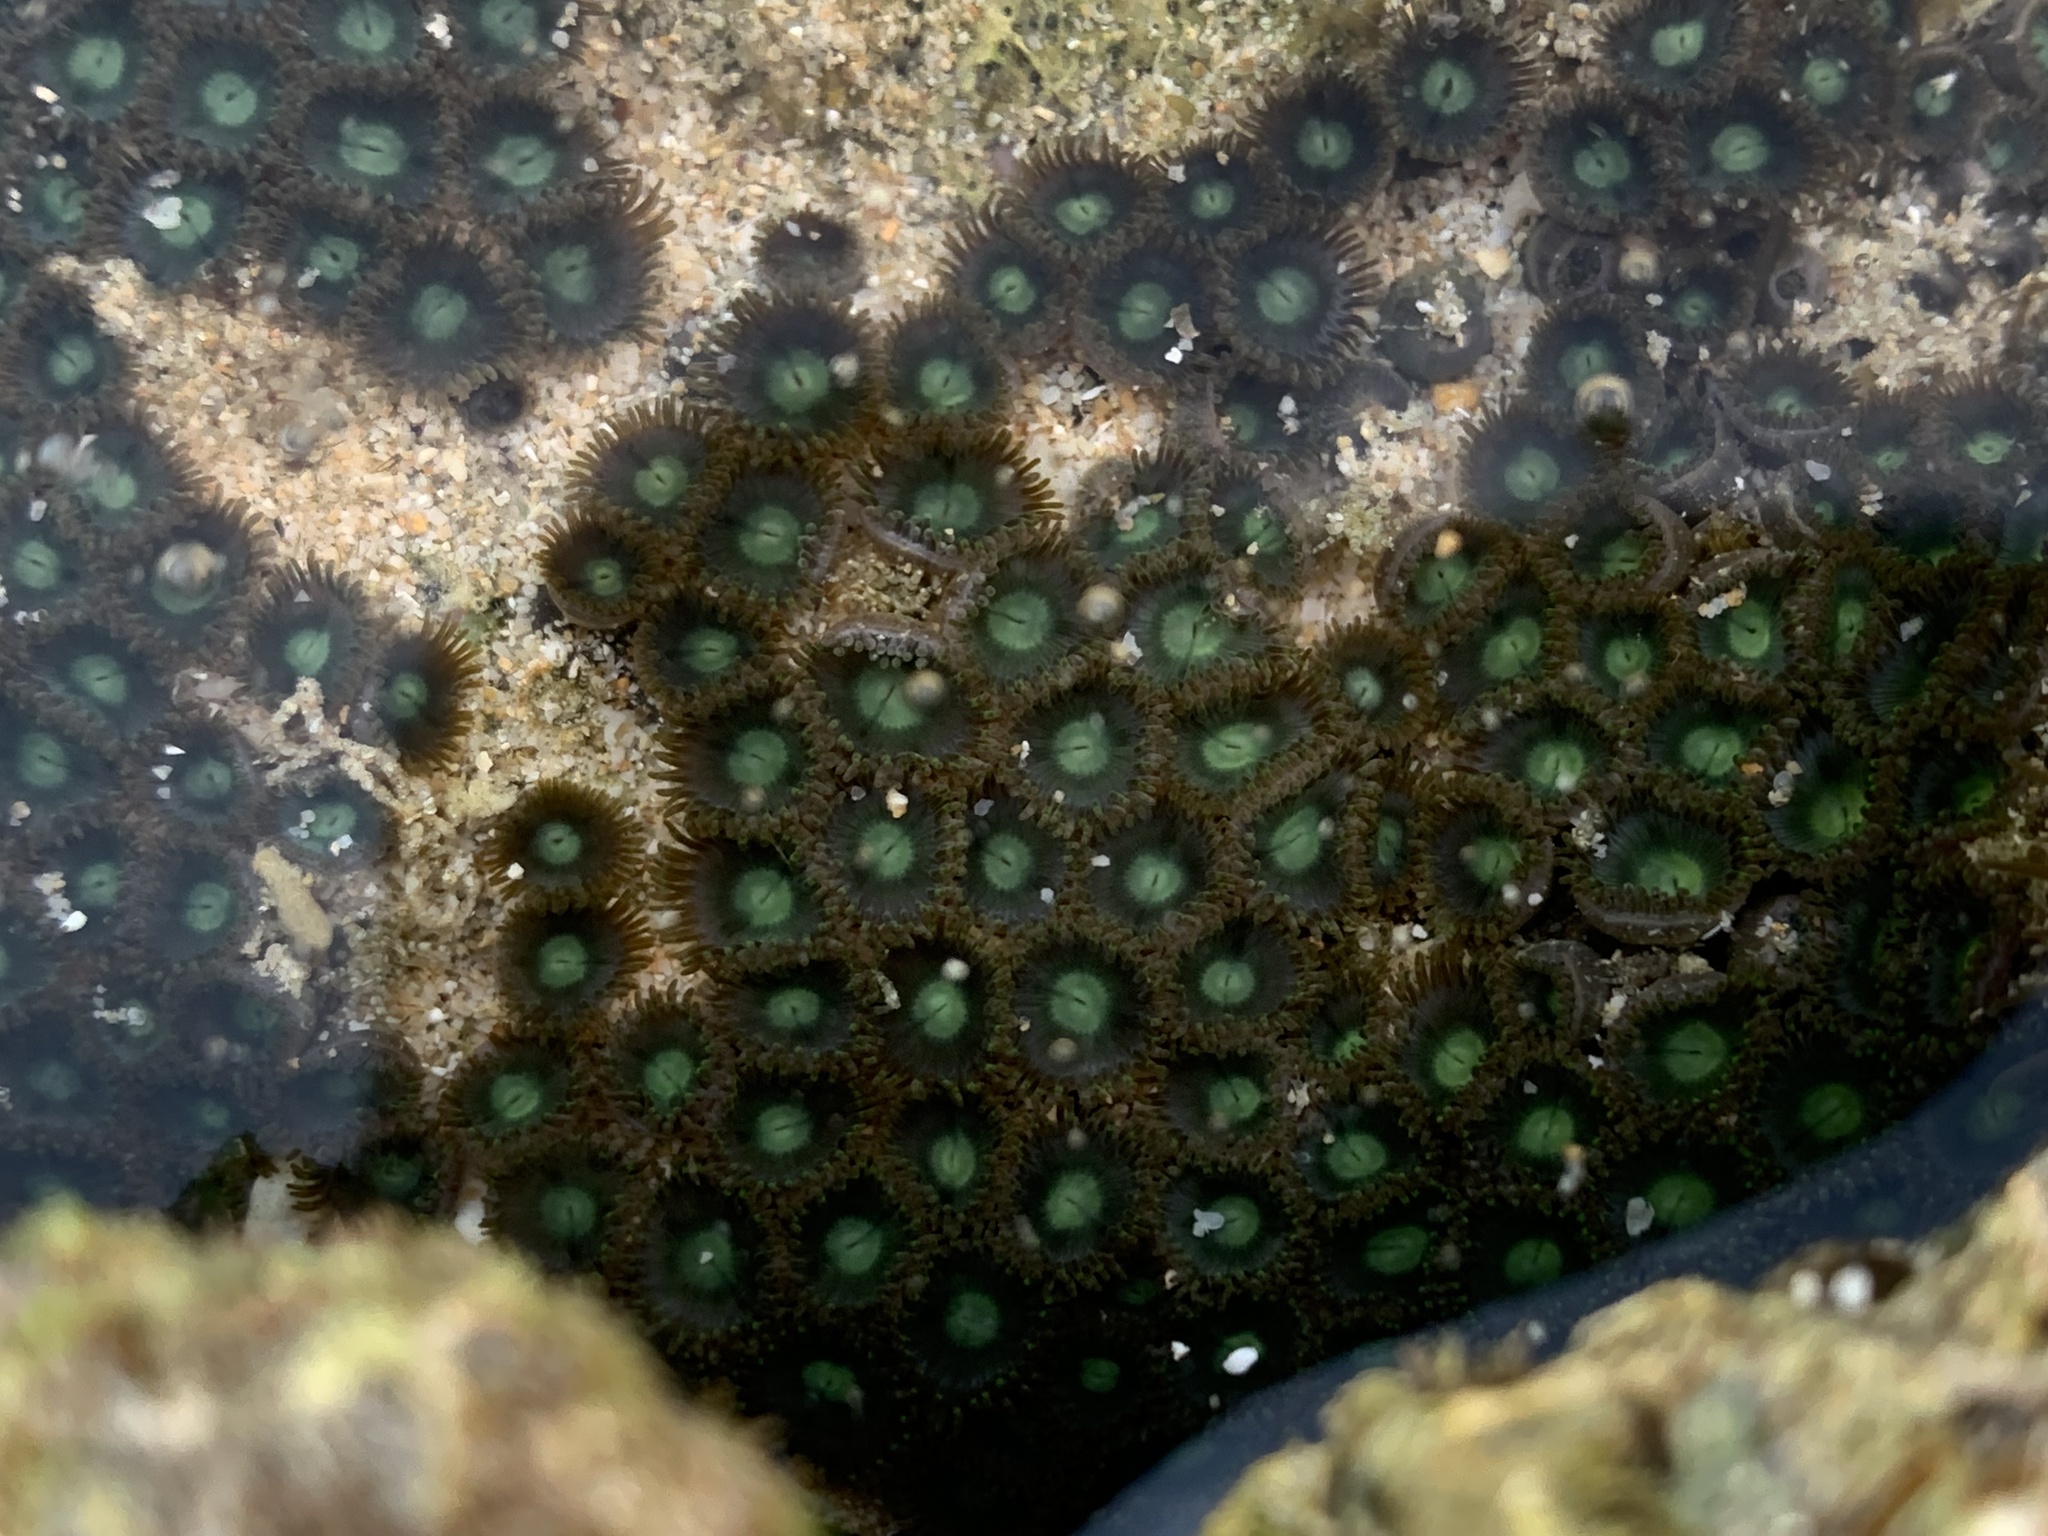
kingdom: Animalia
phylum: Cnidaria
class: Anthozoa
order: Zoantharia
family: Zoanthidae
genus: Zoanthus
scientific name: Zoanthus sansibaricus
